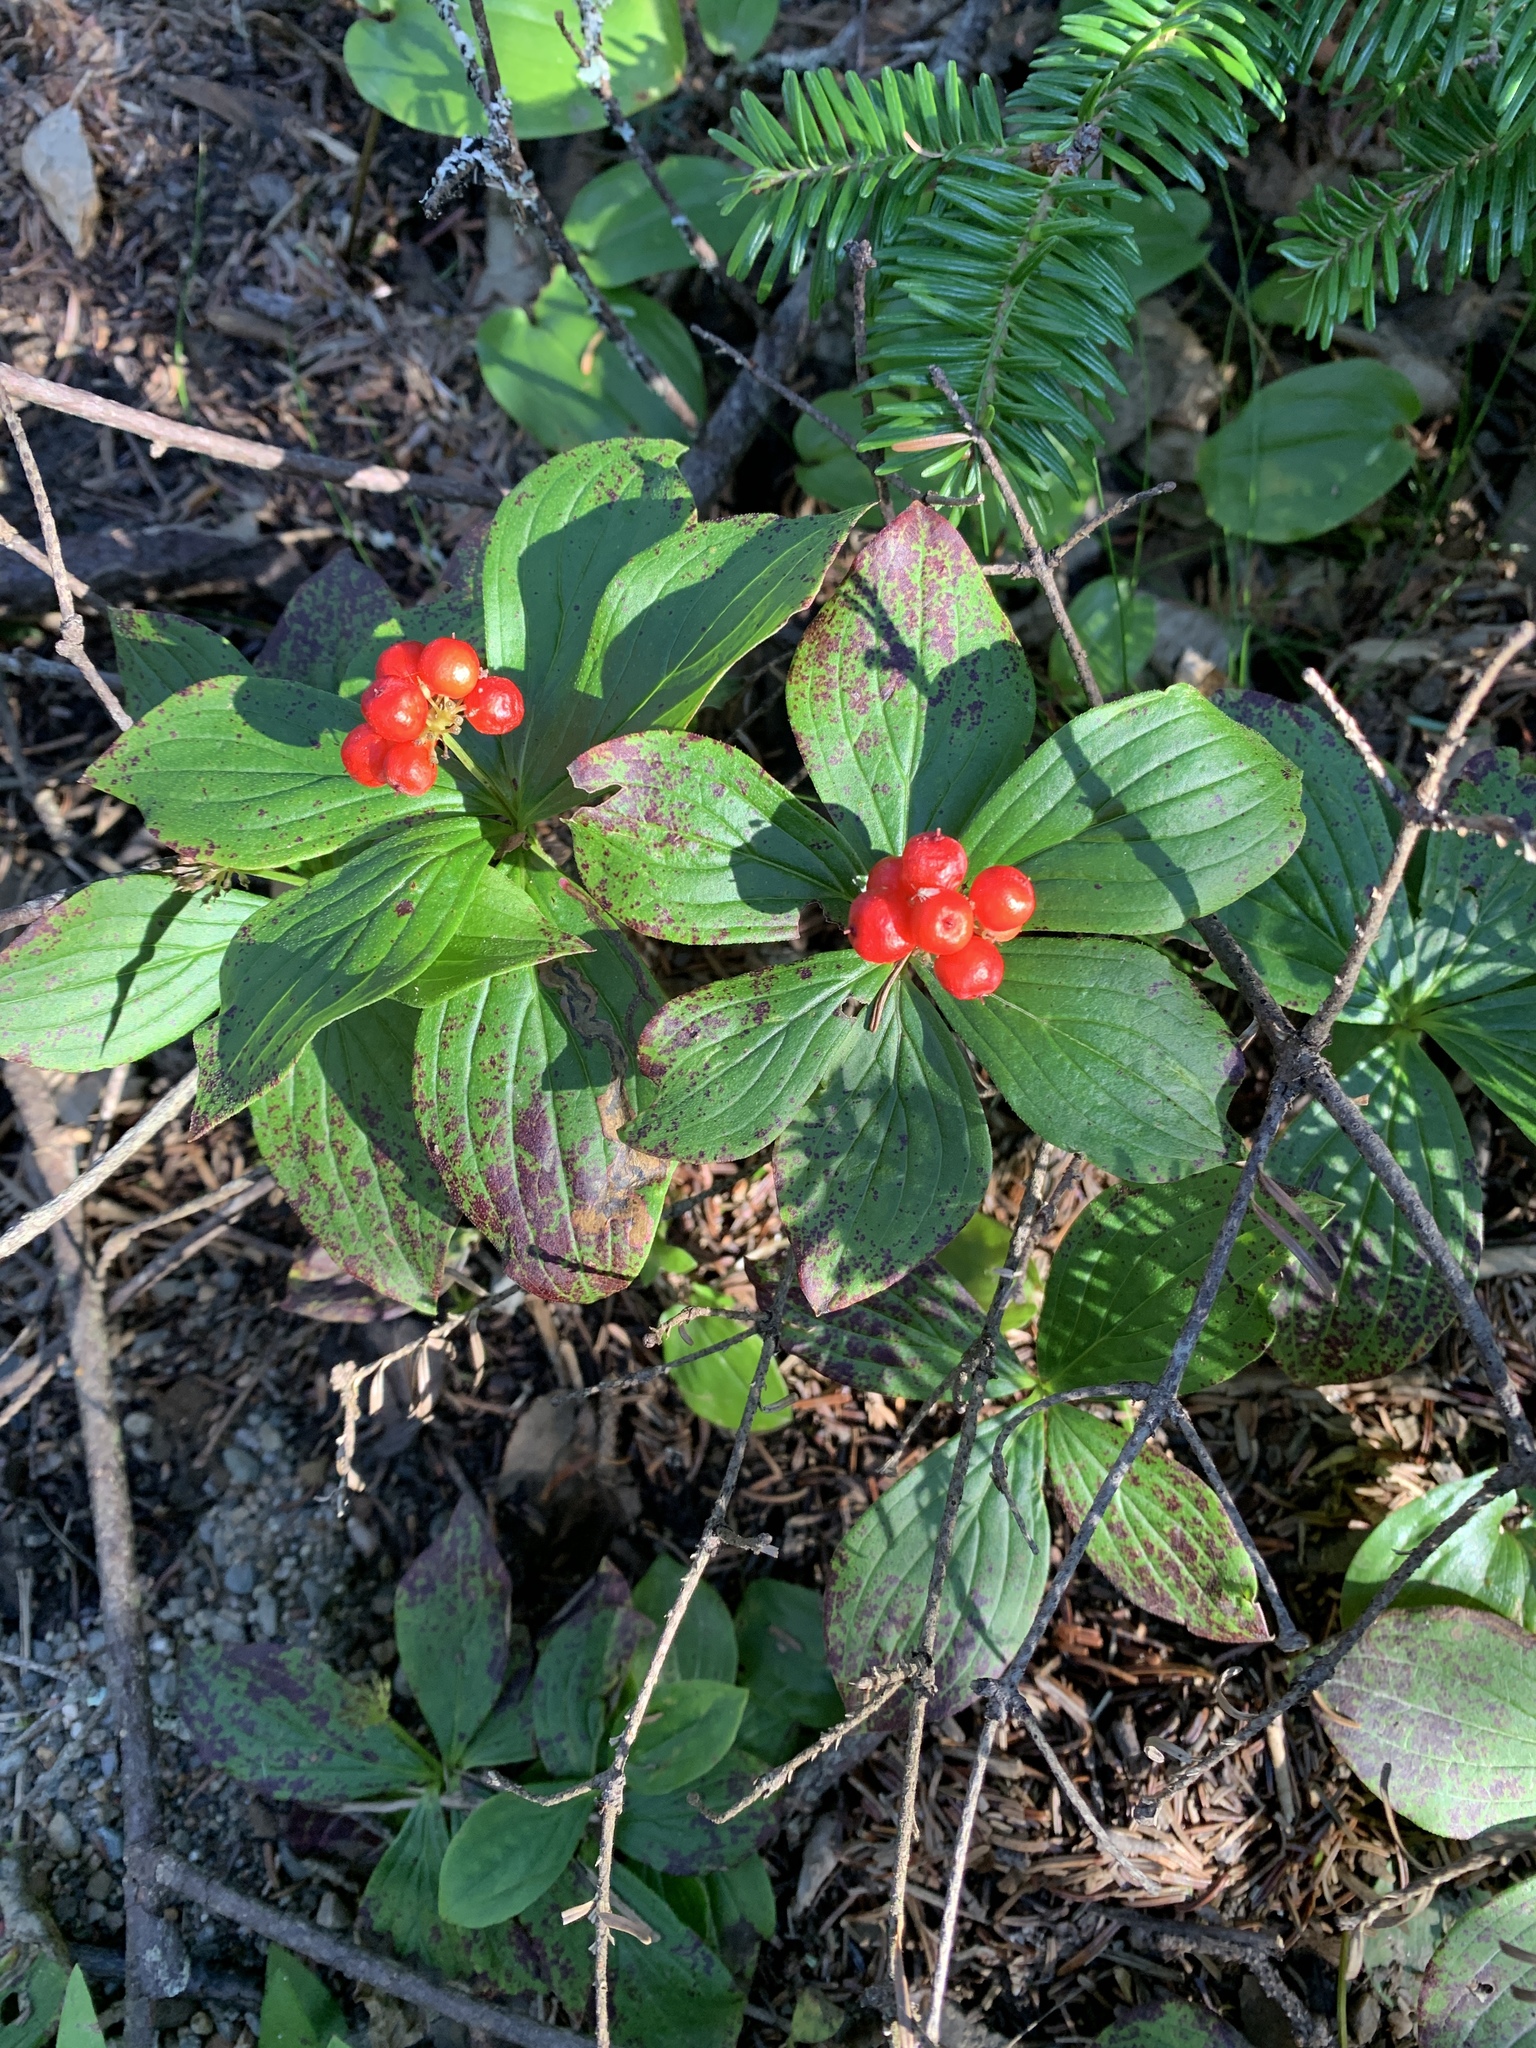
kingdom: Plantae
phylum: Tracheophyta
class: Magnoliopsida
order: Cornales
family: Cornaceae
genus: Cornus
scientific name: Cornus canadensis
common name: Creeping dogwood
